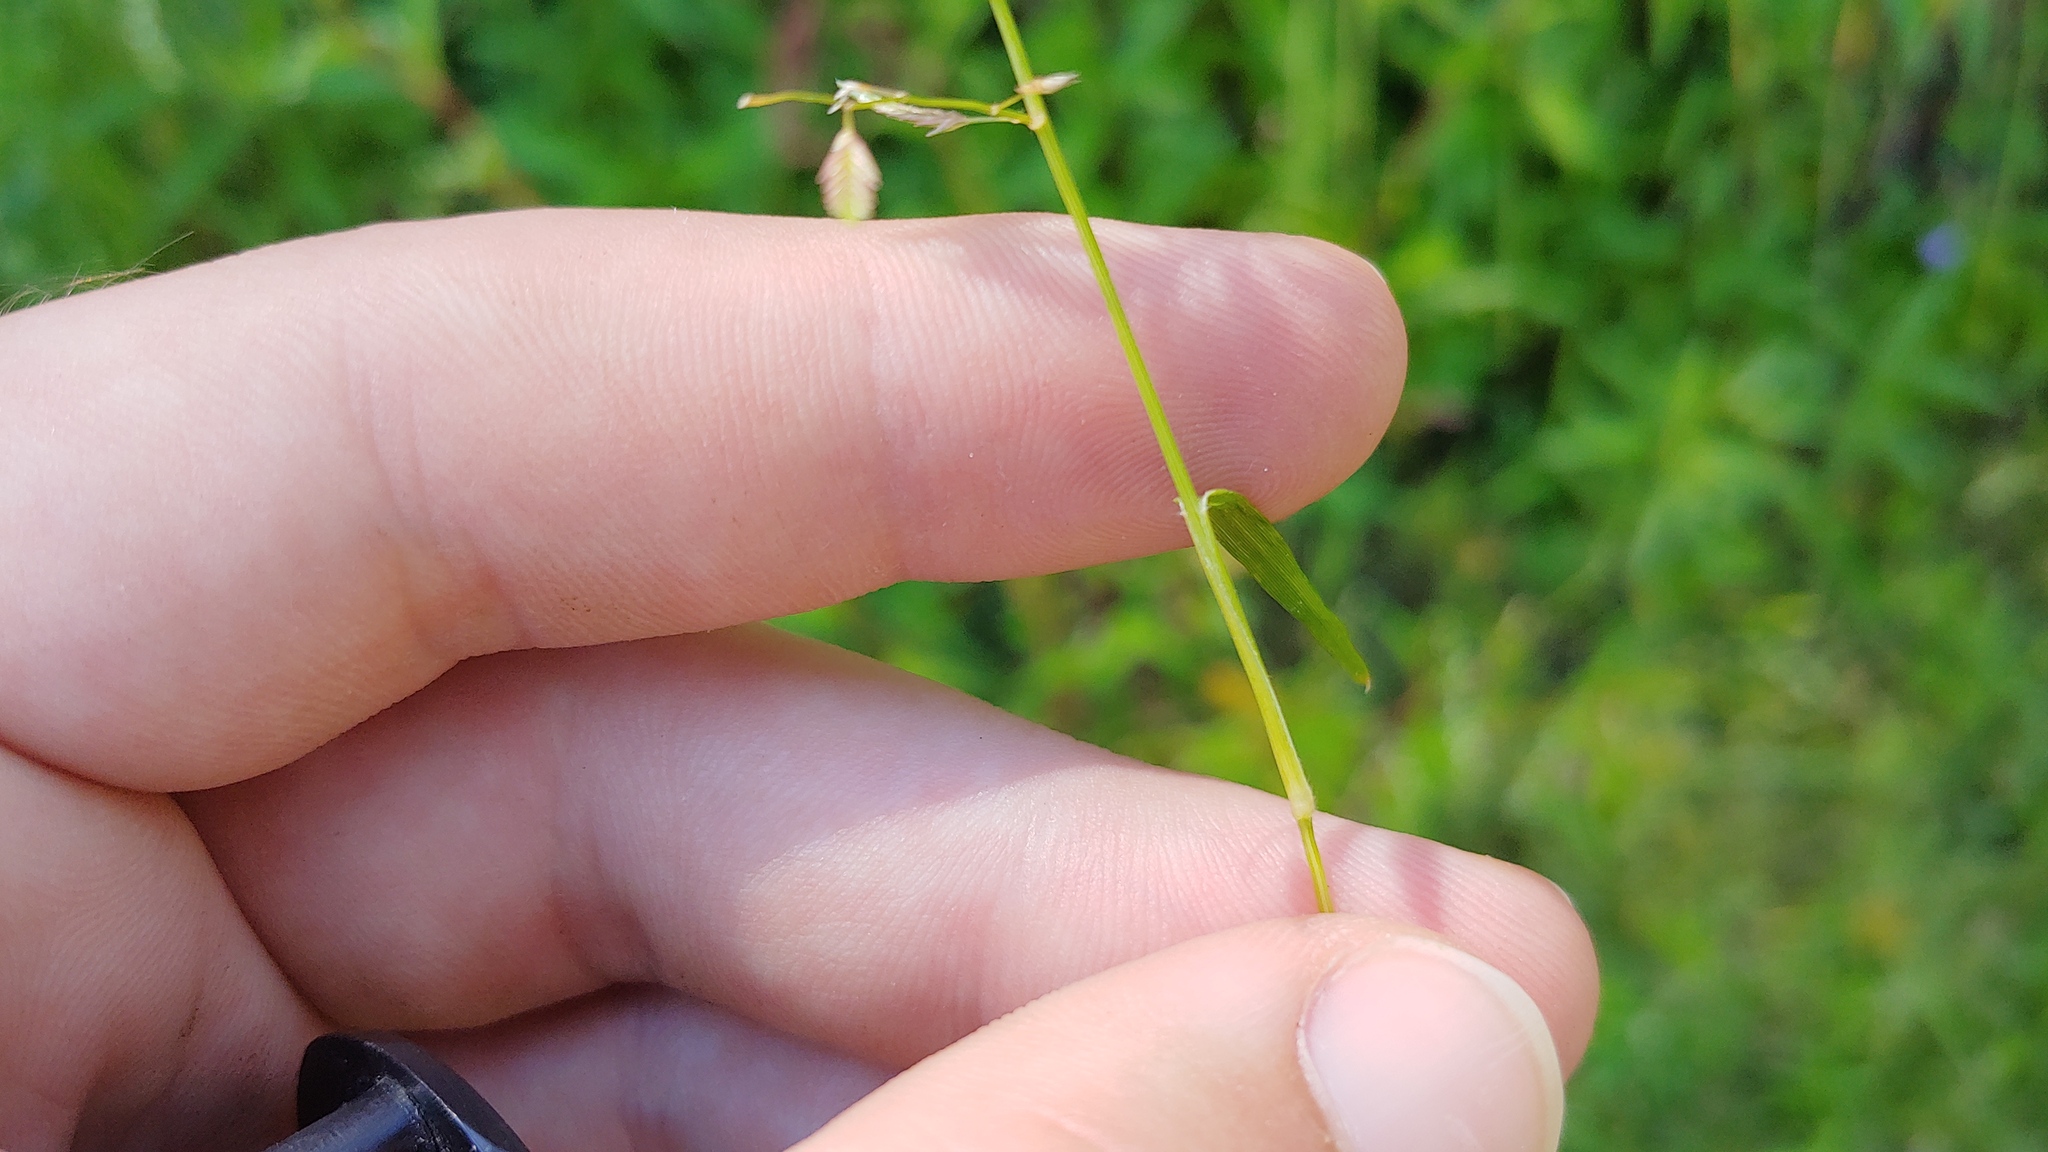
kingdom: Plantae
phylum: Tracheophyta
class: Liliopsida
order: Poales
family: Poaceae
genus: Eragrostis
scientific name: Eragrostis hypnoides
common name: Creeping love grass
